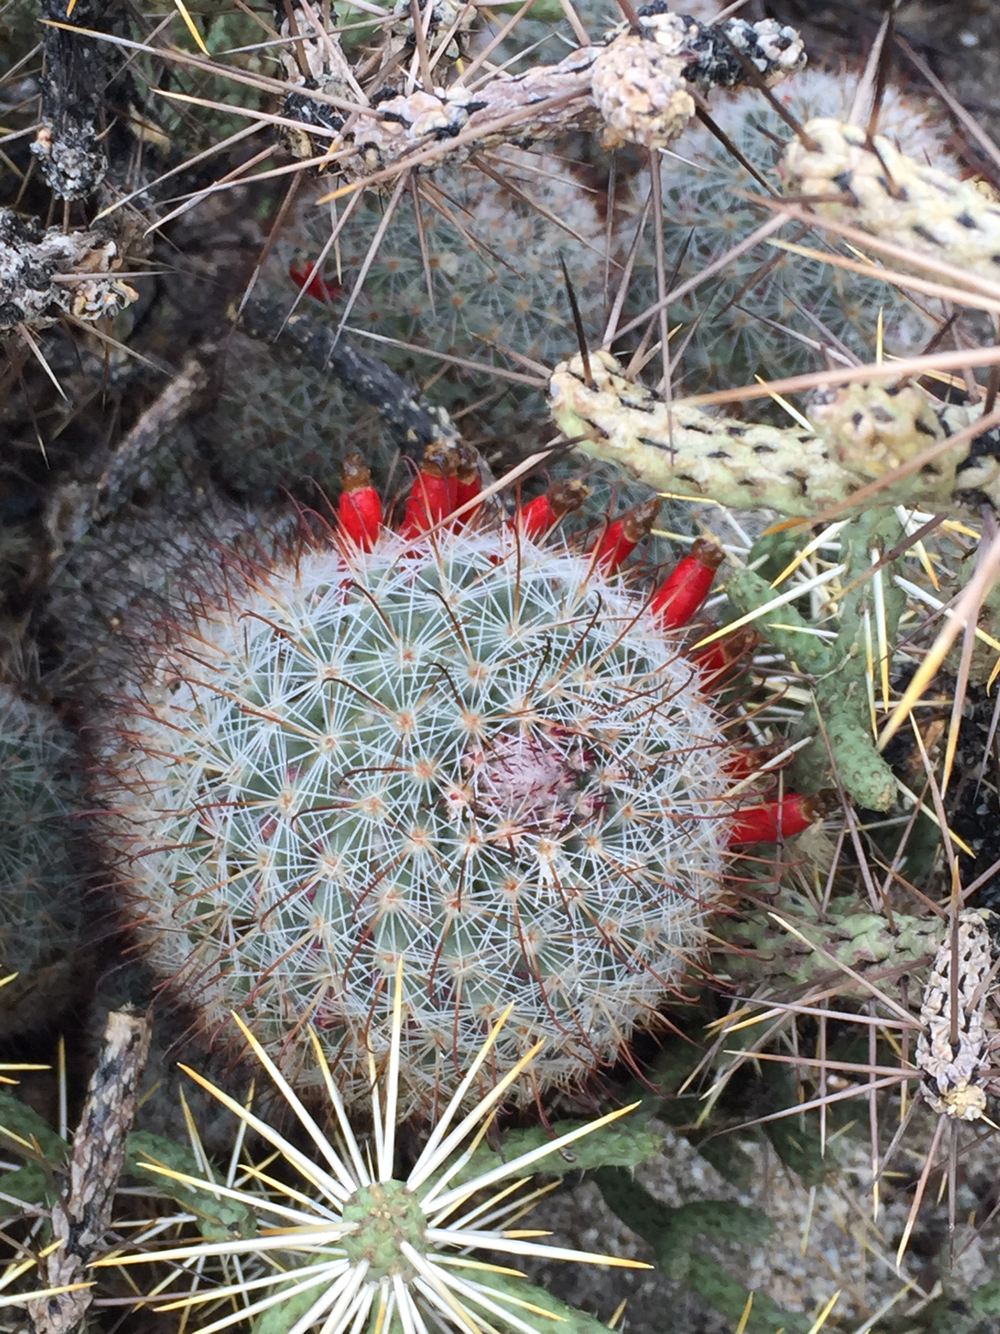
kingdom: Plantae
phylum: Tracheophyta
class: Magnoliopsida
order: Caryophyllales
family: Cactaceae
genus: Cochemiea
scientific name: Cochemiea dioica
